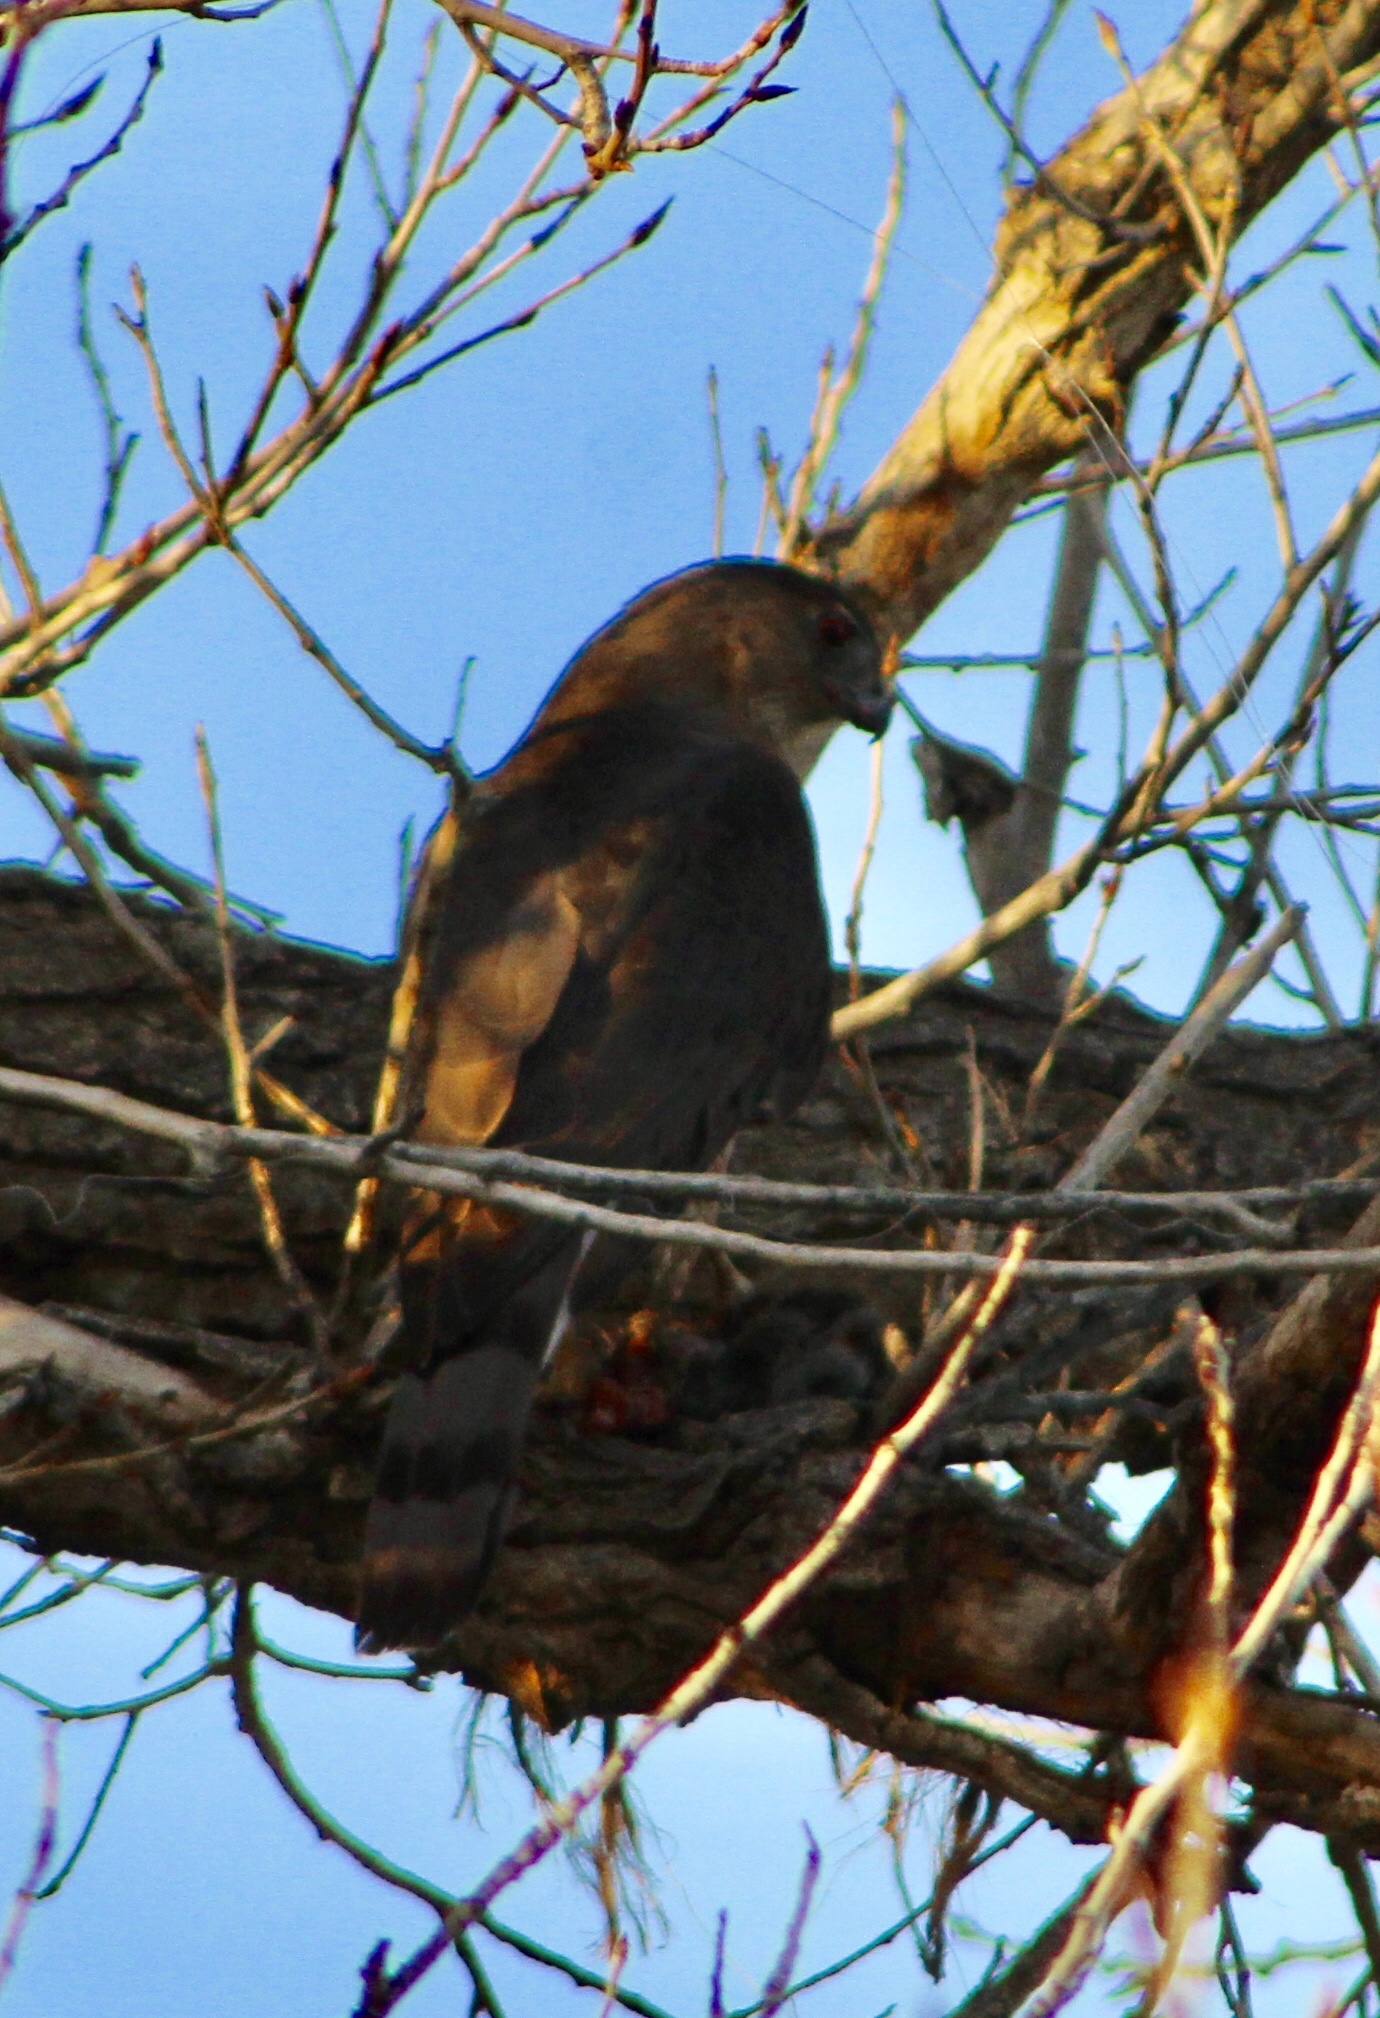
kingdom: Animalia
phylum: Chordata
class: Aves
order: Accipitriformes
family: Accipitridae
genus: Accipiter
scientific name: Accipiter cooperii
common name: Cooper's hawk
